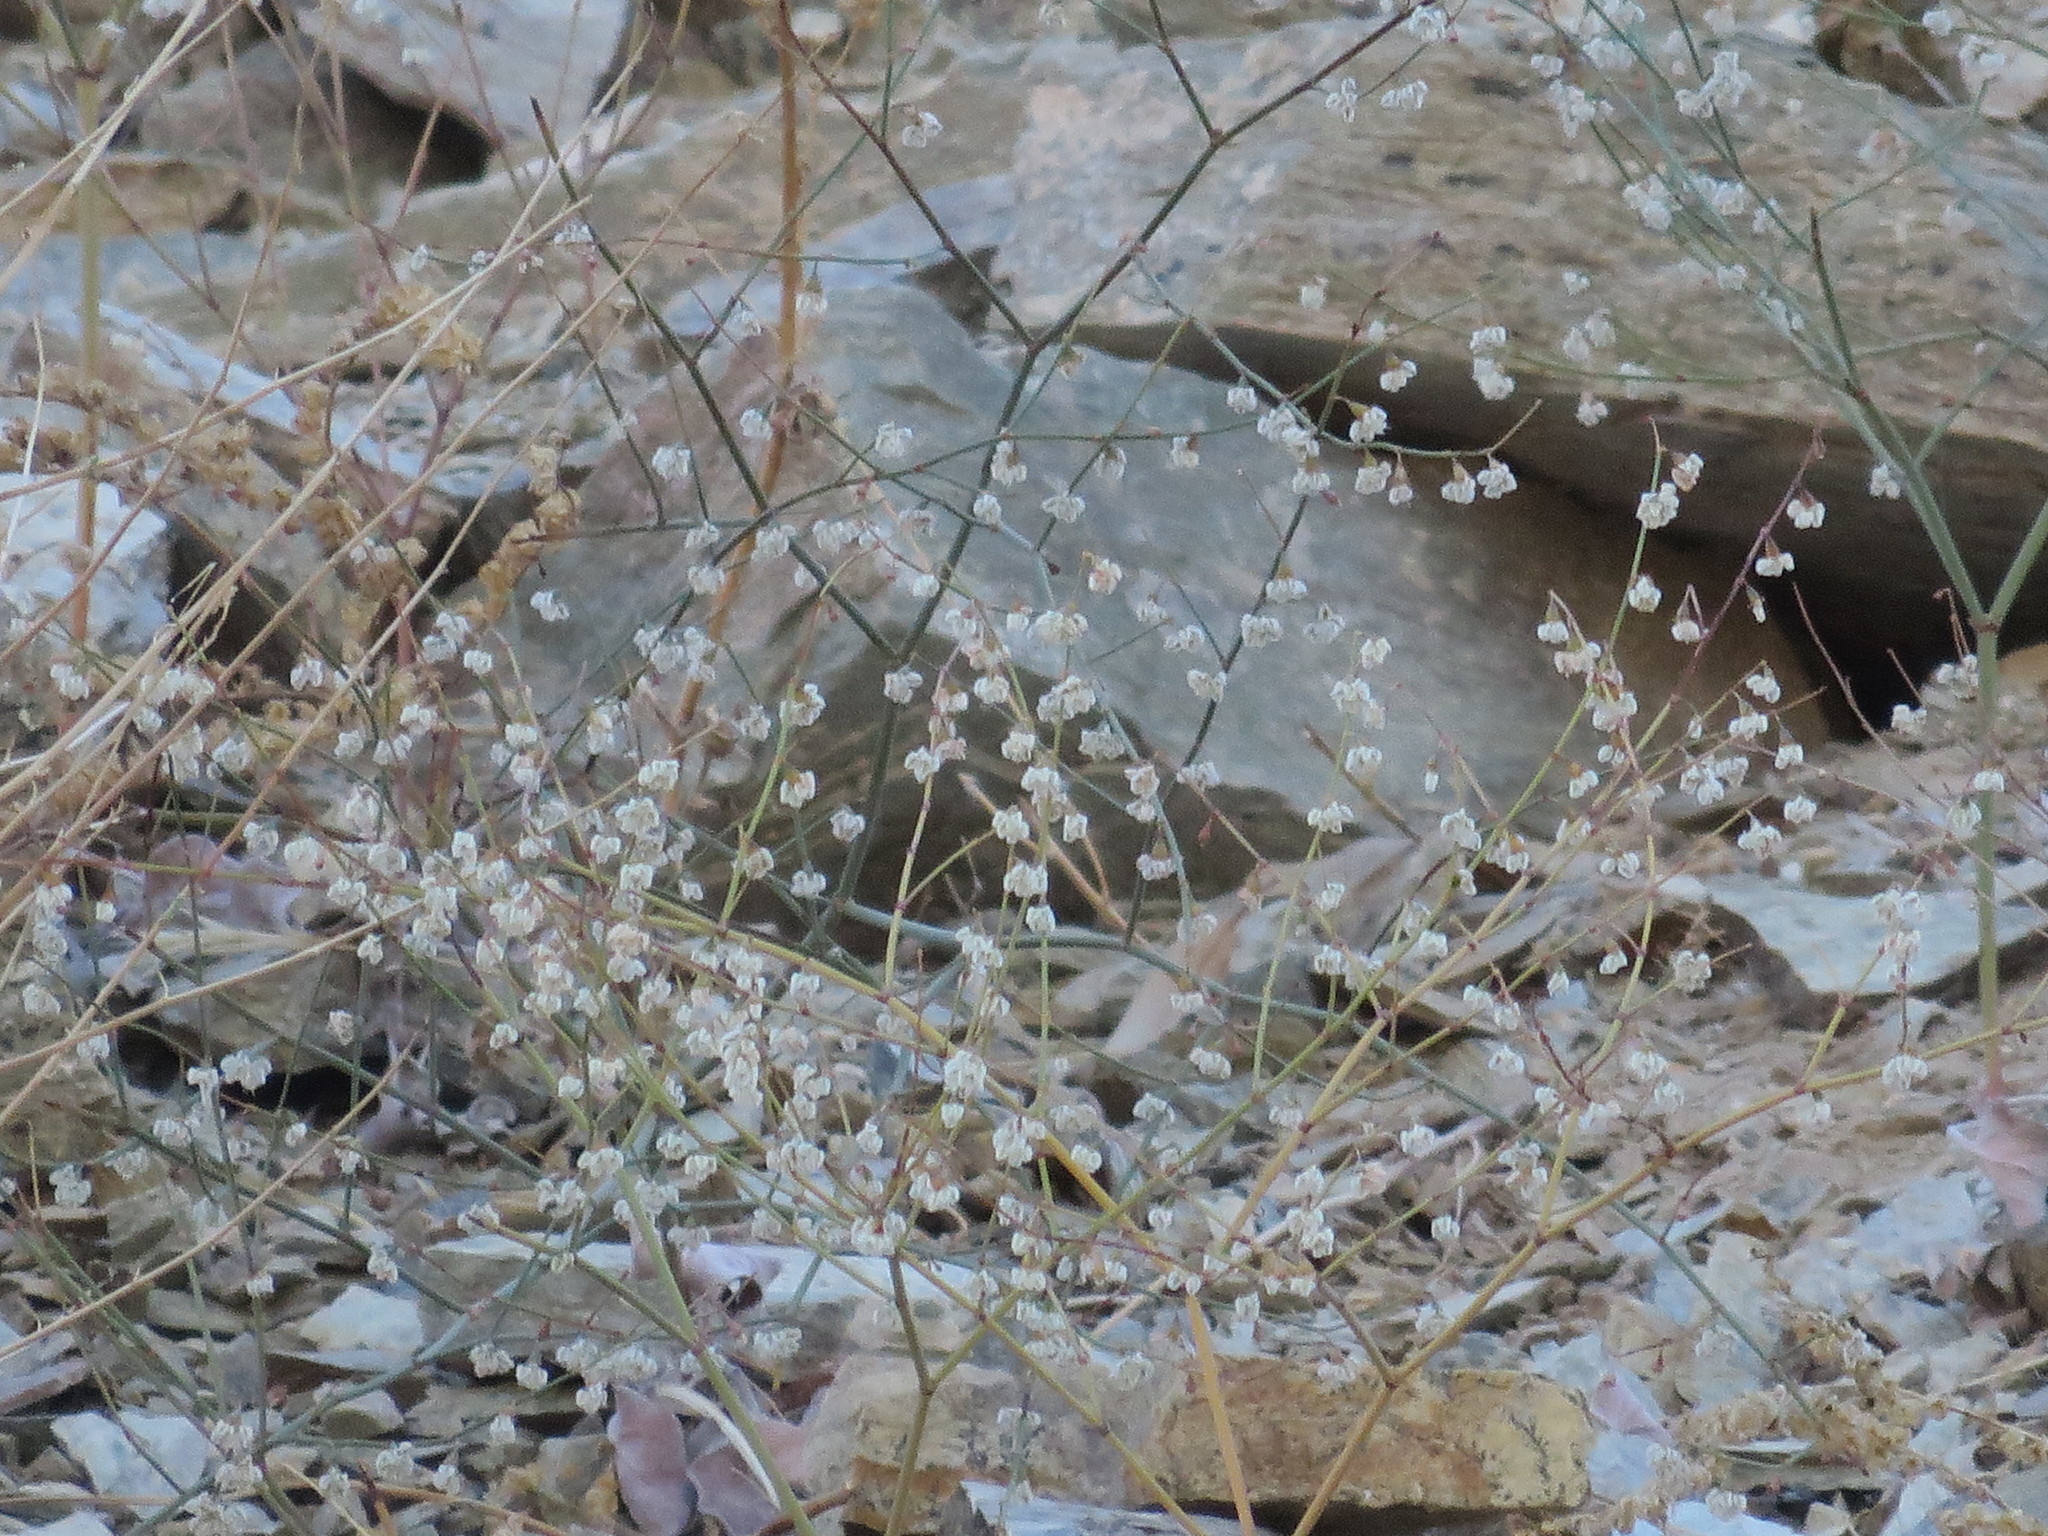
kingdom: Plantae
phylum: Tracheophyta
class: Magnoliopsida
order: Caryophyllales
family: Polygonaceae
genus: Eriogonum
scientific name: Eriogonum deflexum
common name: Skeleton-weed
